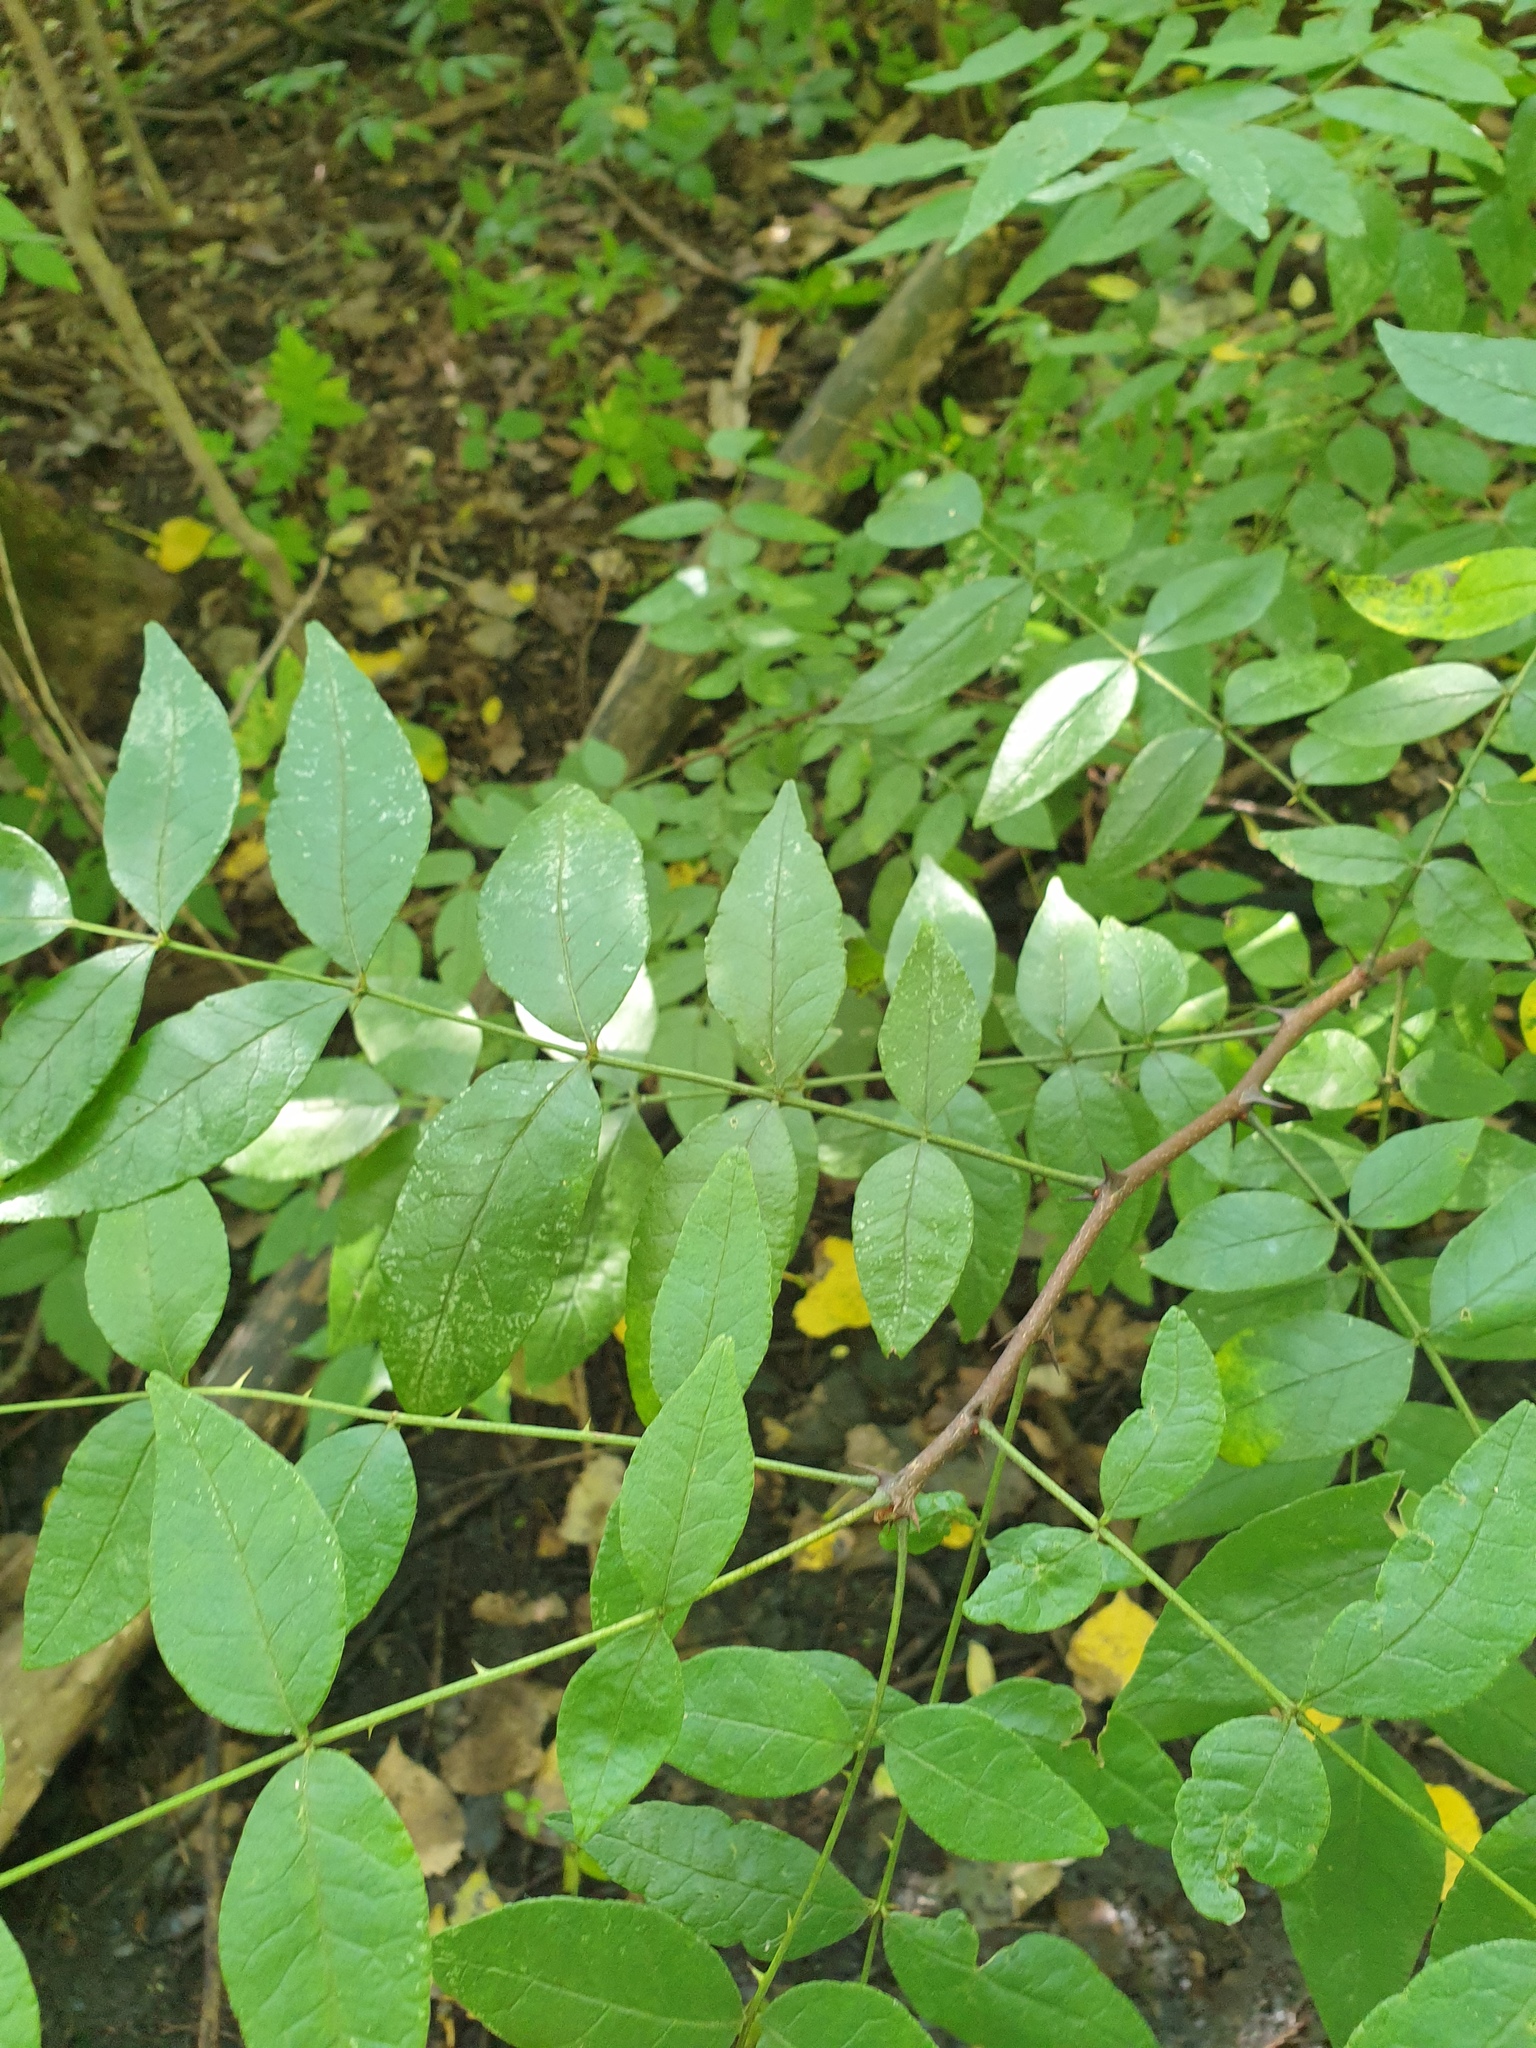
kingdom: Plantae
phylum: Tracheophyta
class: Magnoliopsida
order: Sapindales
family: Rutaceae
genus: Zanthoxylum
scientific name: Zanthoxylum americanum
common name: Northern prickly-ash
